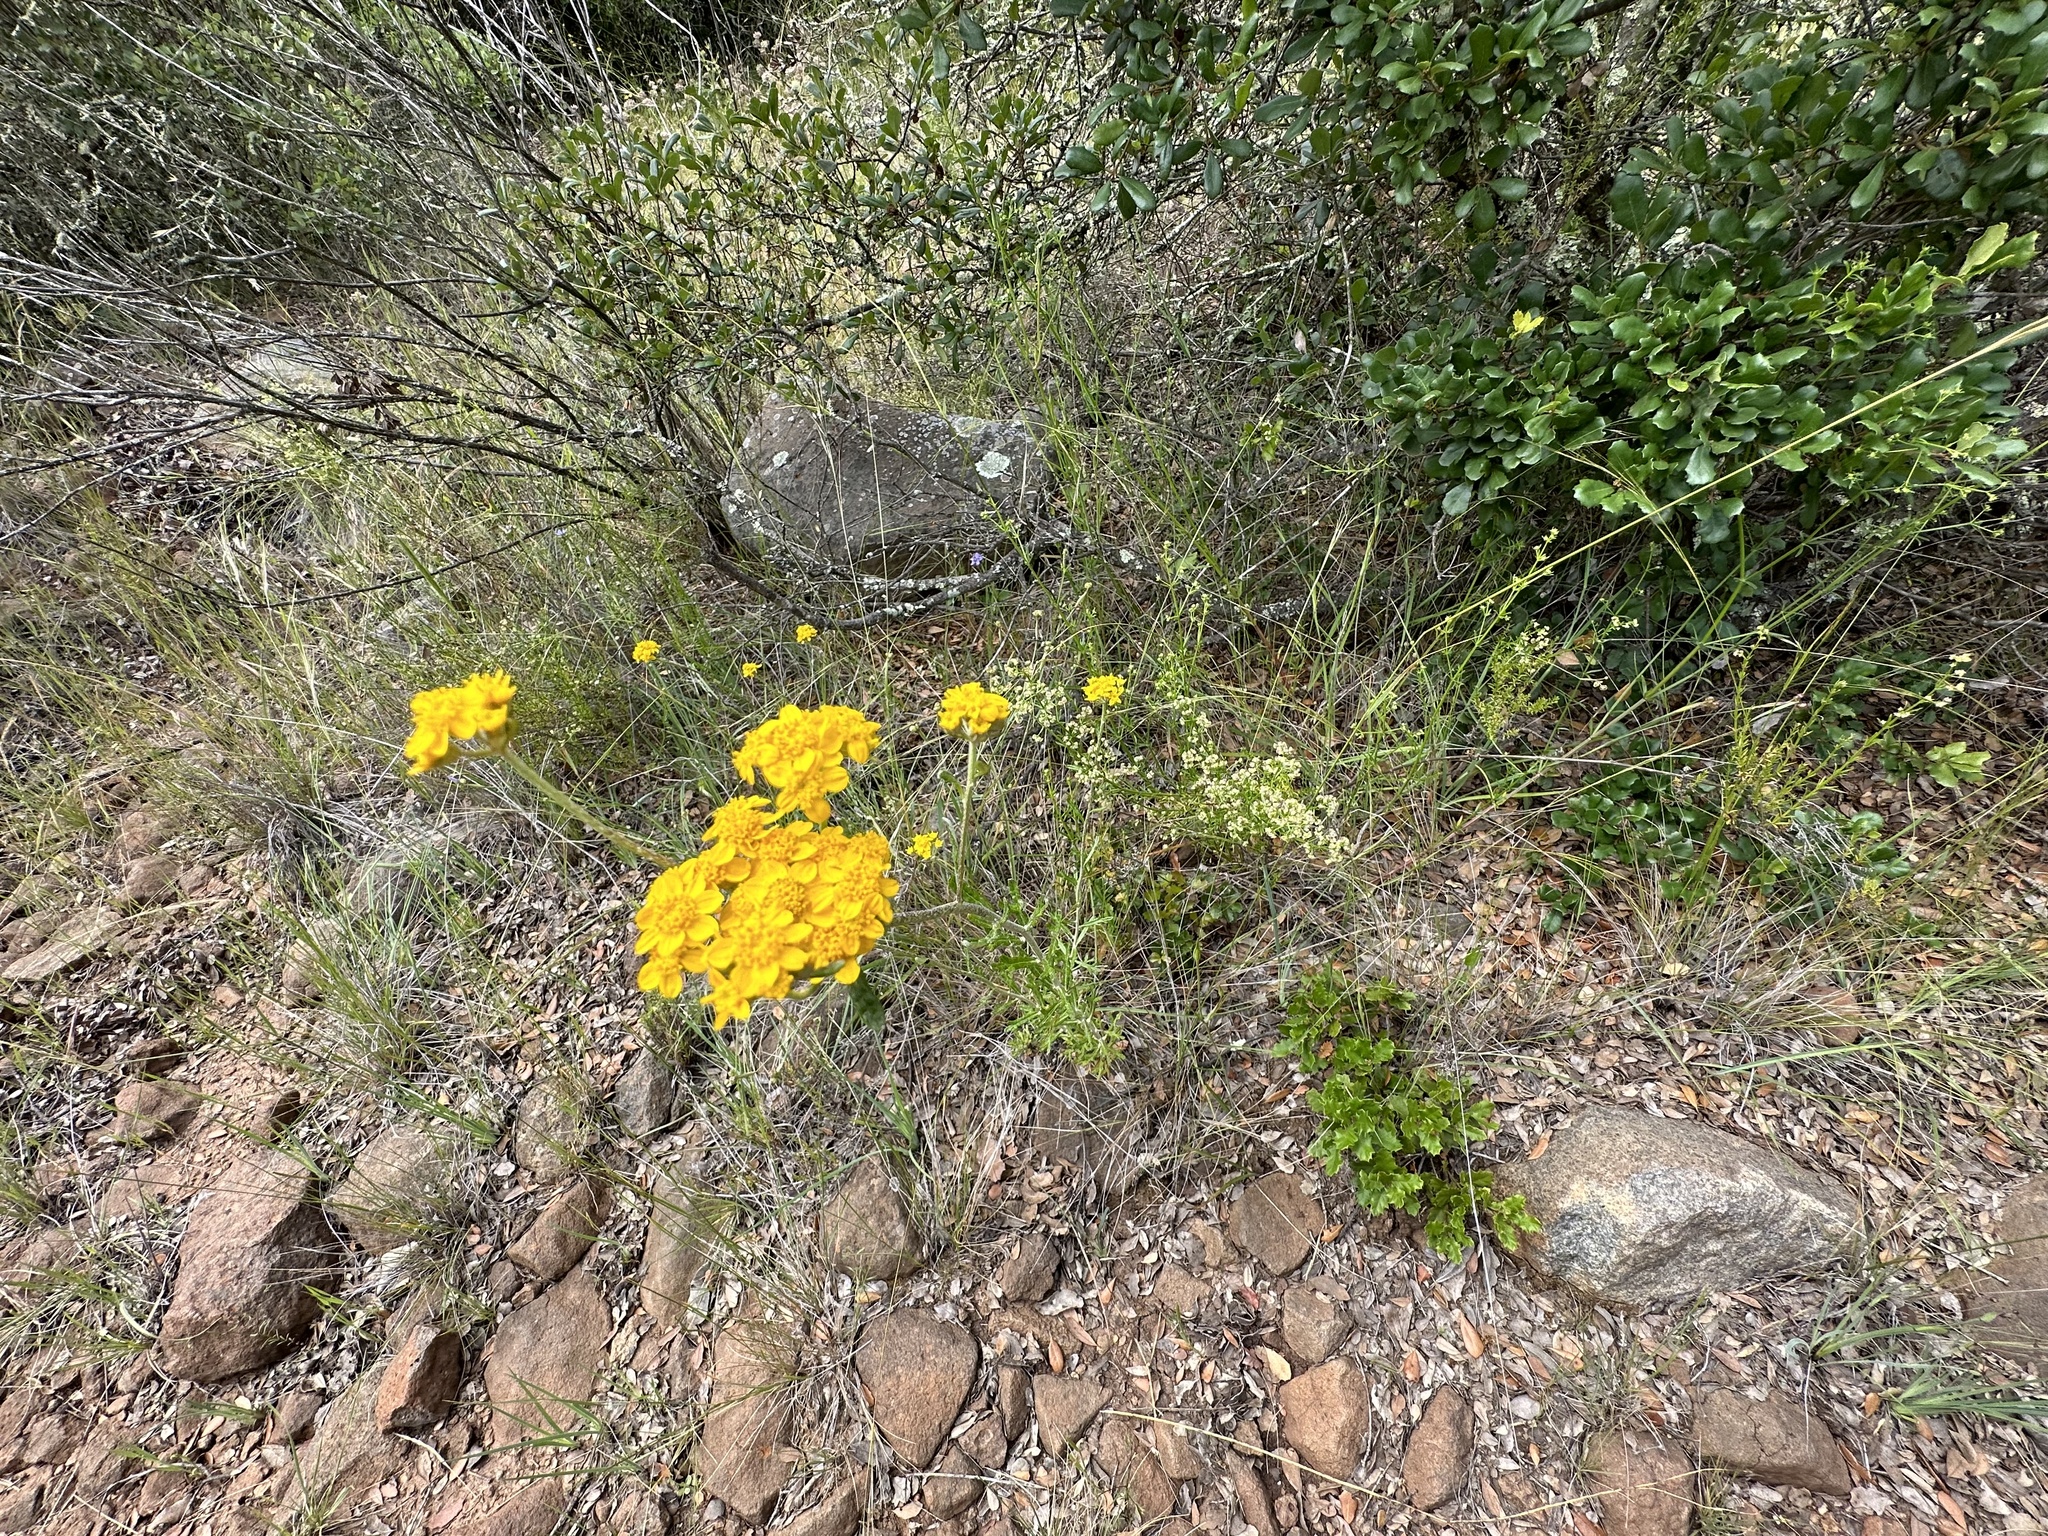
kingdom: Plantae
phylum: Tracheophyta
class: Magnoliopsida
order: Asterales
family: Asteraceae
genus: Eriophyllum
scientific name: Eriophyllum confertiflorum
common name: Golden-yarrow
